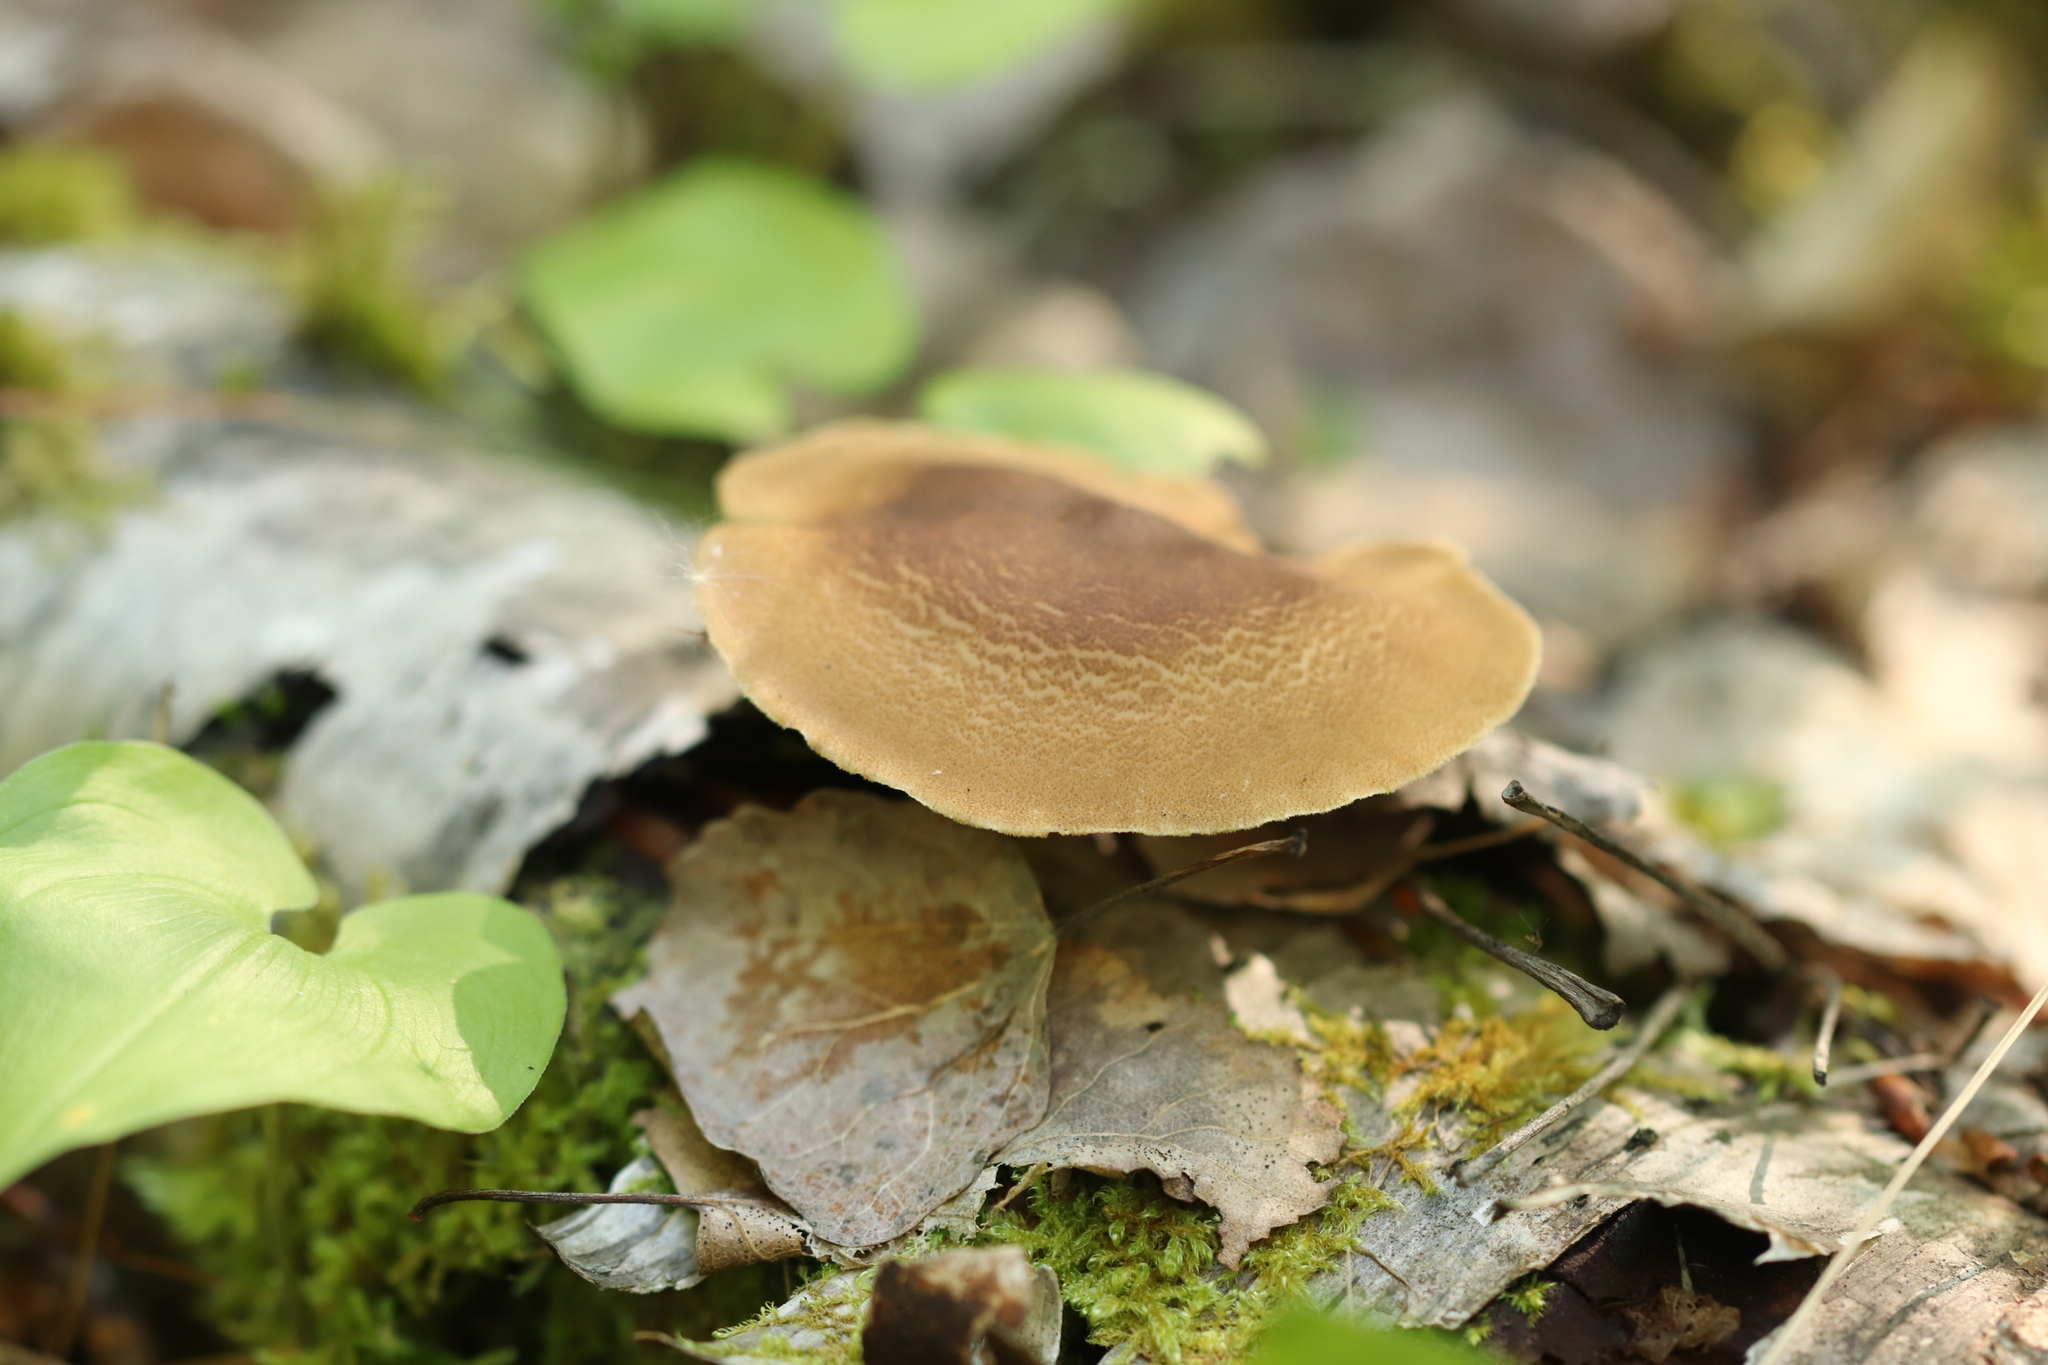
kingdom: Fungi
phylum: Basidiomycota
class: Agaricomycetes
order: Polyporales
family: Polyporaceae
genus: Lentinus
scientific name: Lentinus substrictus
